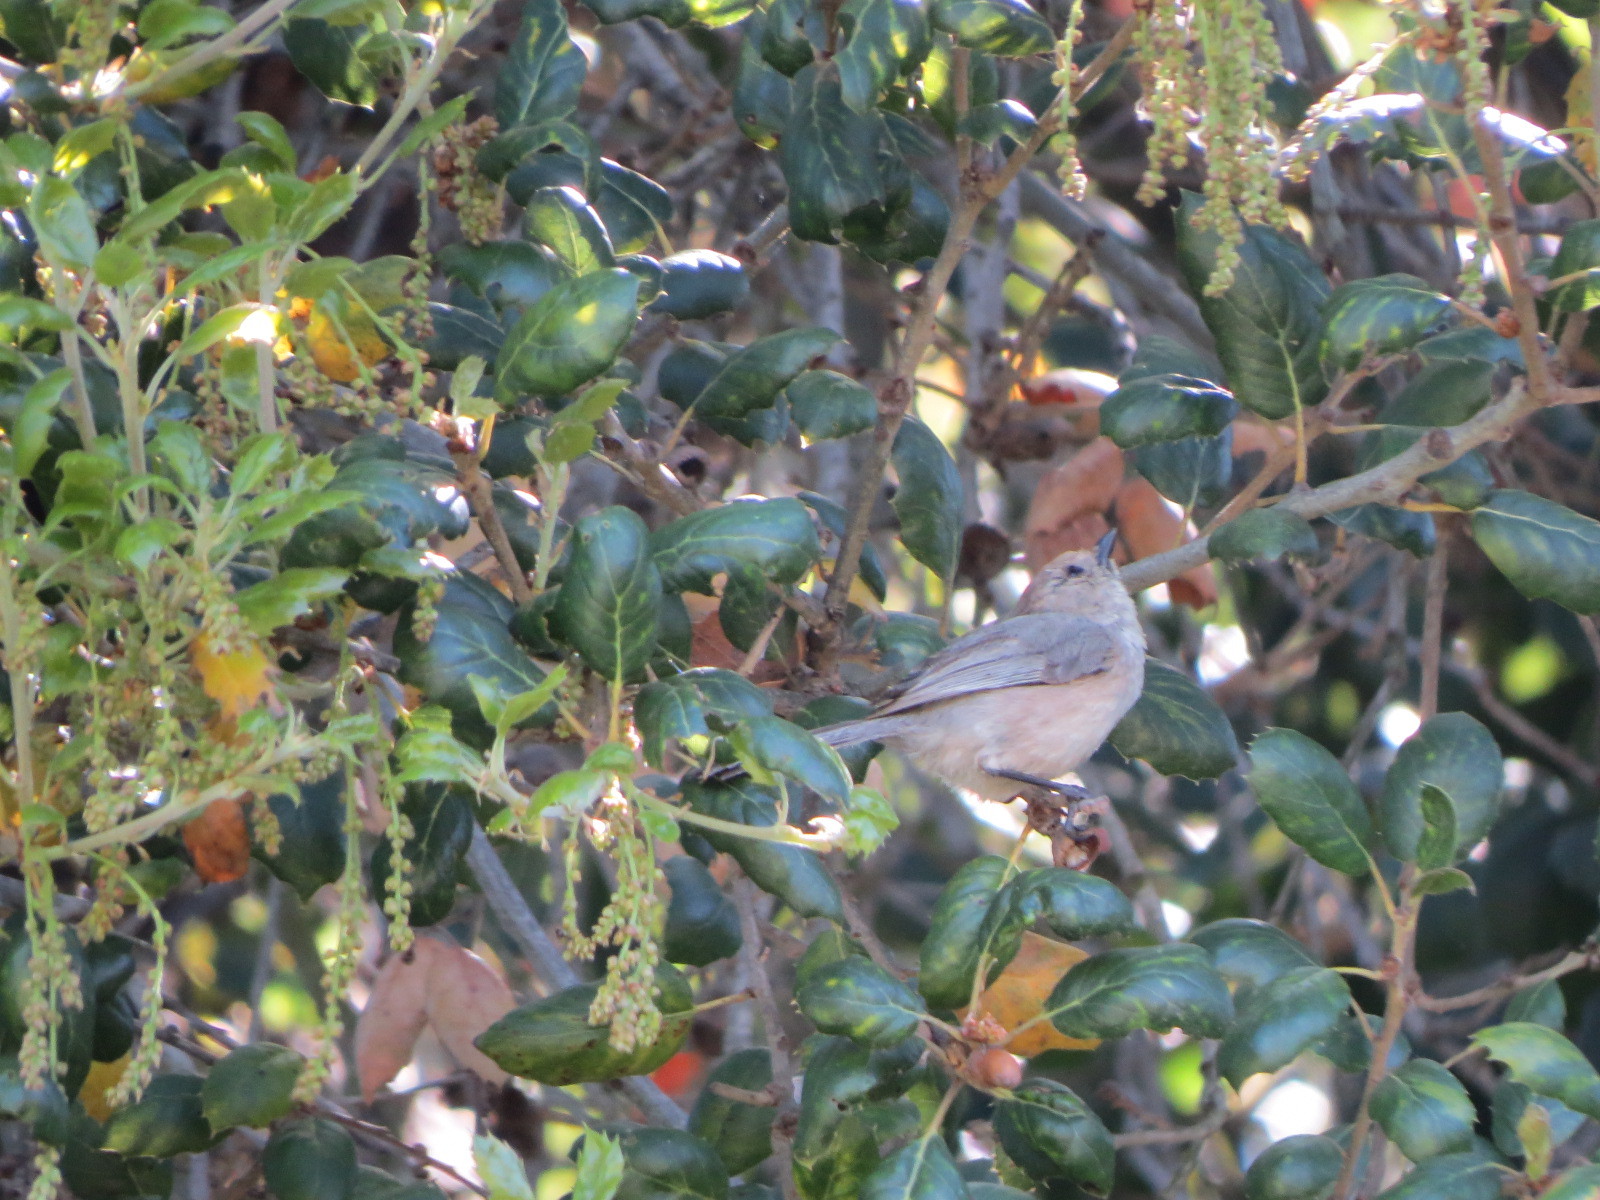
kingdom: Animalia
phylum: Chordata
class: Aves
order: Passeriformes
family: Aegithalidae
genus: Psaltriparus
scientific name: Psaltriparus minimus
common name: American bushtit
